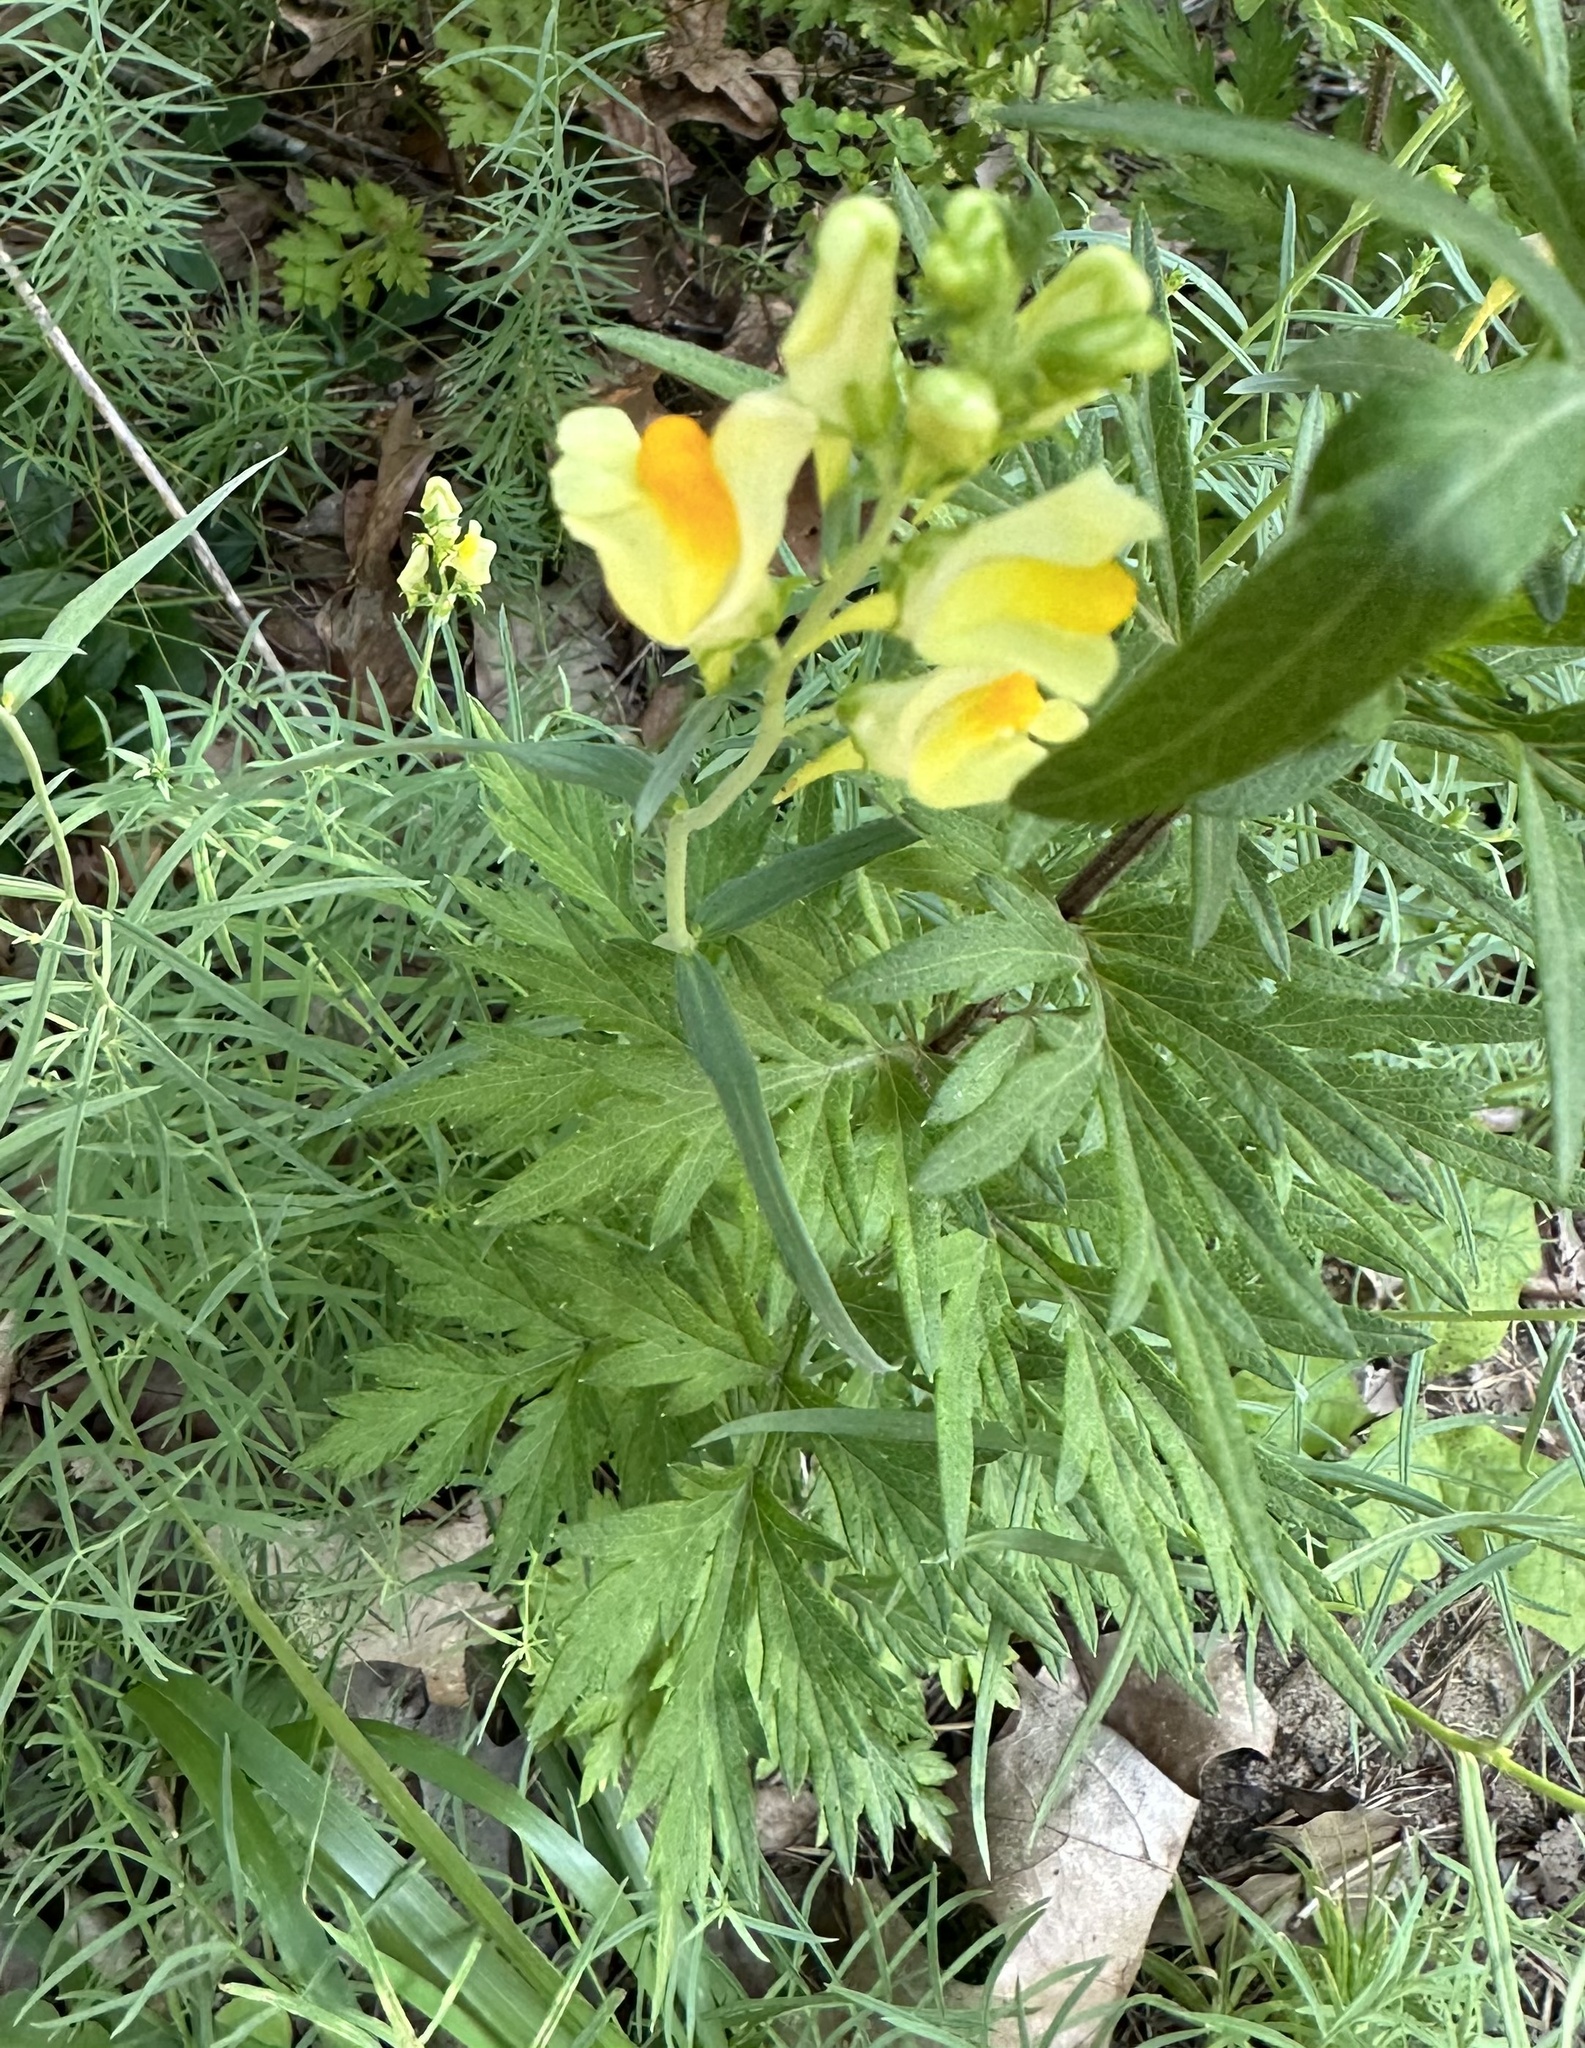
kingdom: Plantae
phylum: Tracheophyta
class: Magnoliopsida
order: Lamiales
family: Plantaginaceae
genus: Linaria
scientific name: Linaria vulgaris
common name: Butter and eggs
